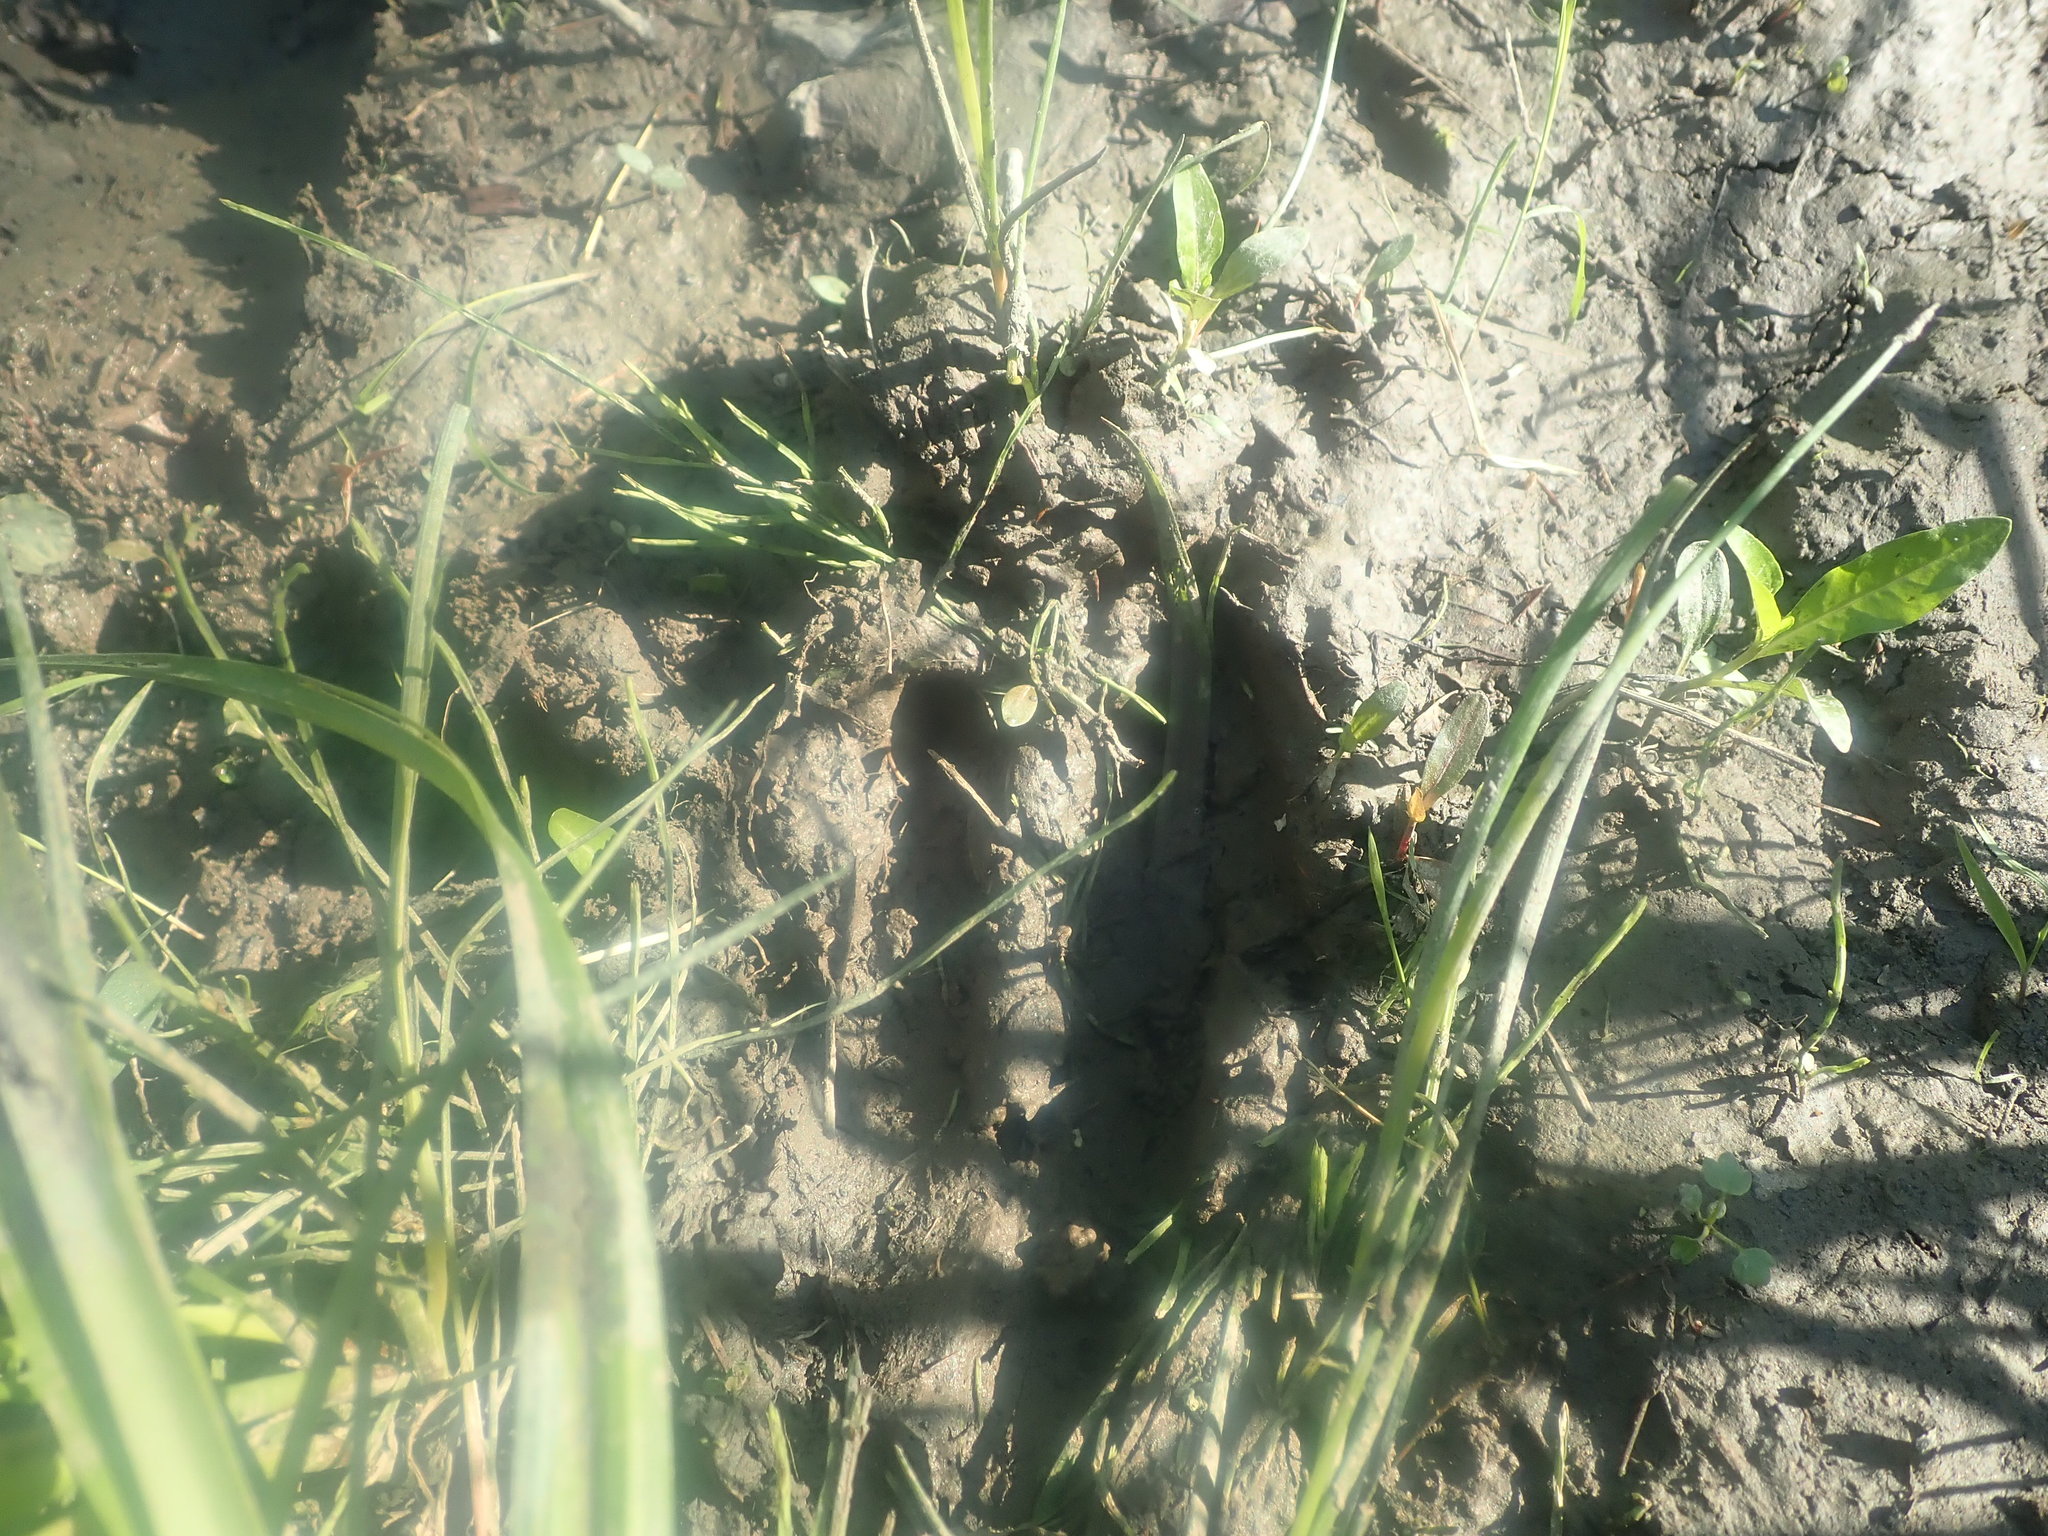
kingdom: Animalia
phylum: Chordata
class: Mammalia
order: Artiodactyla
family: Cervidae
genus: Odocoileus
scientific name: Odocoileus virginianus
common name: White-tailed deer
